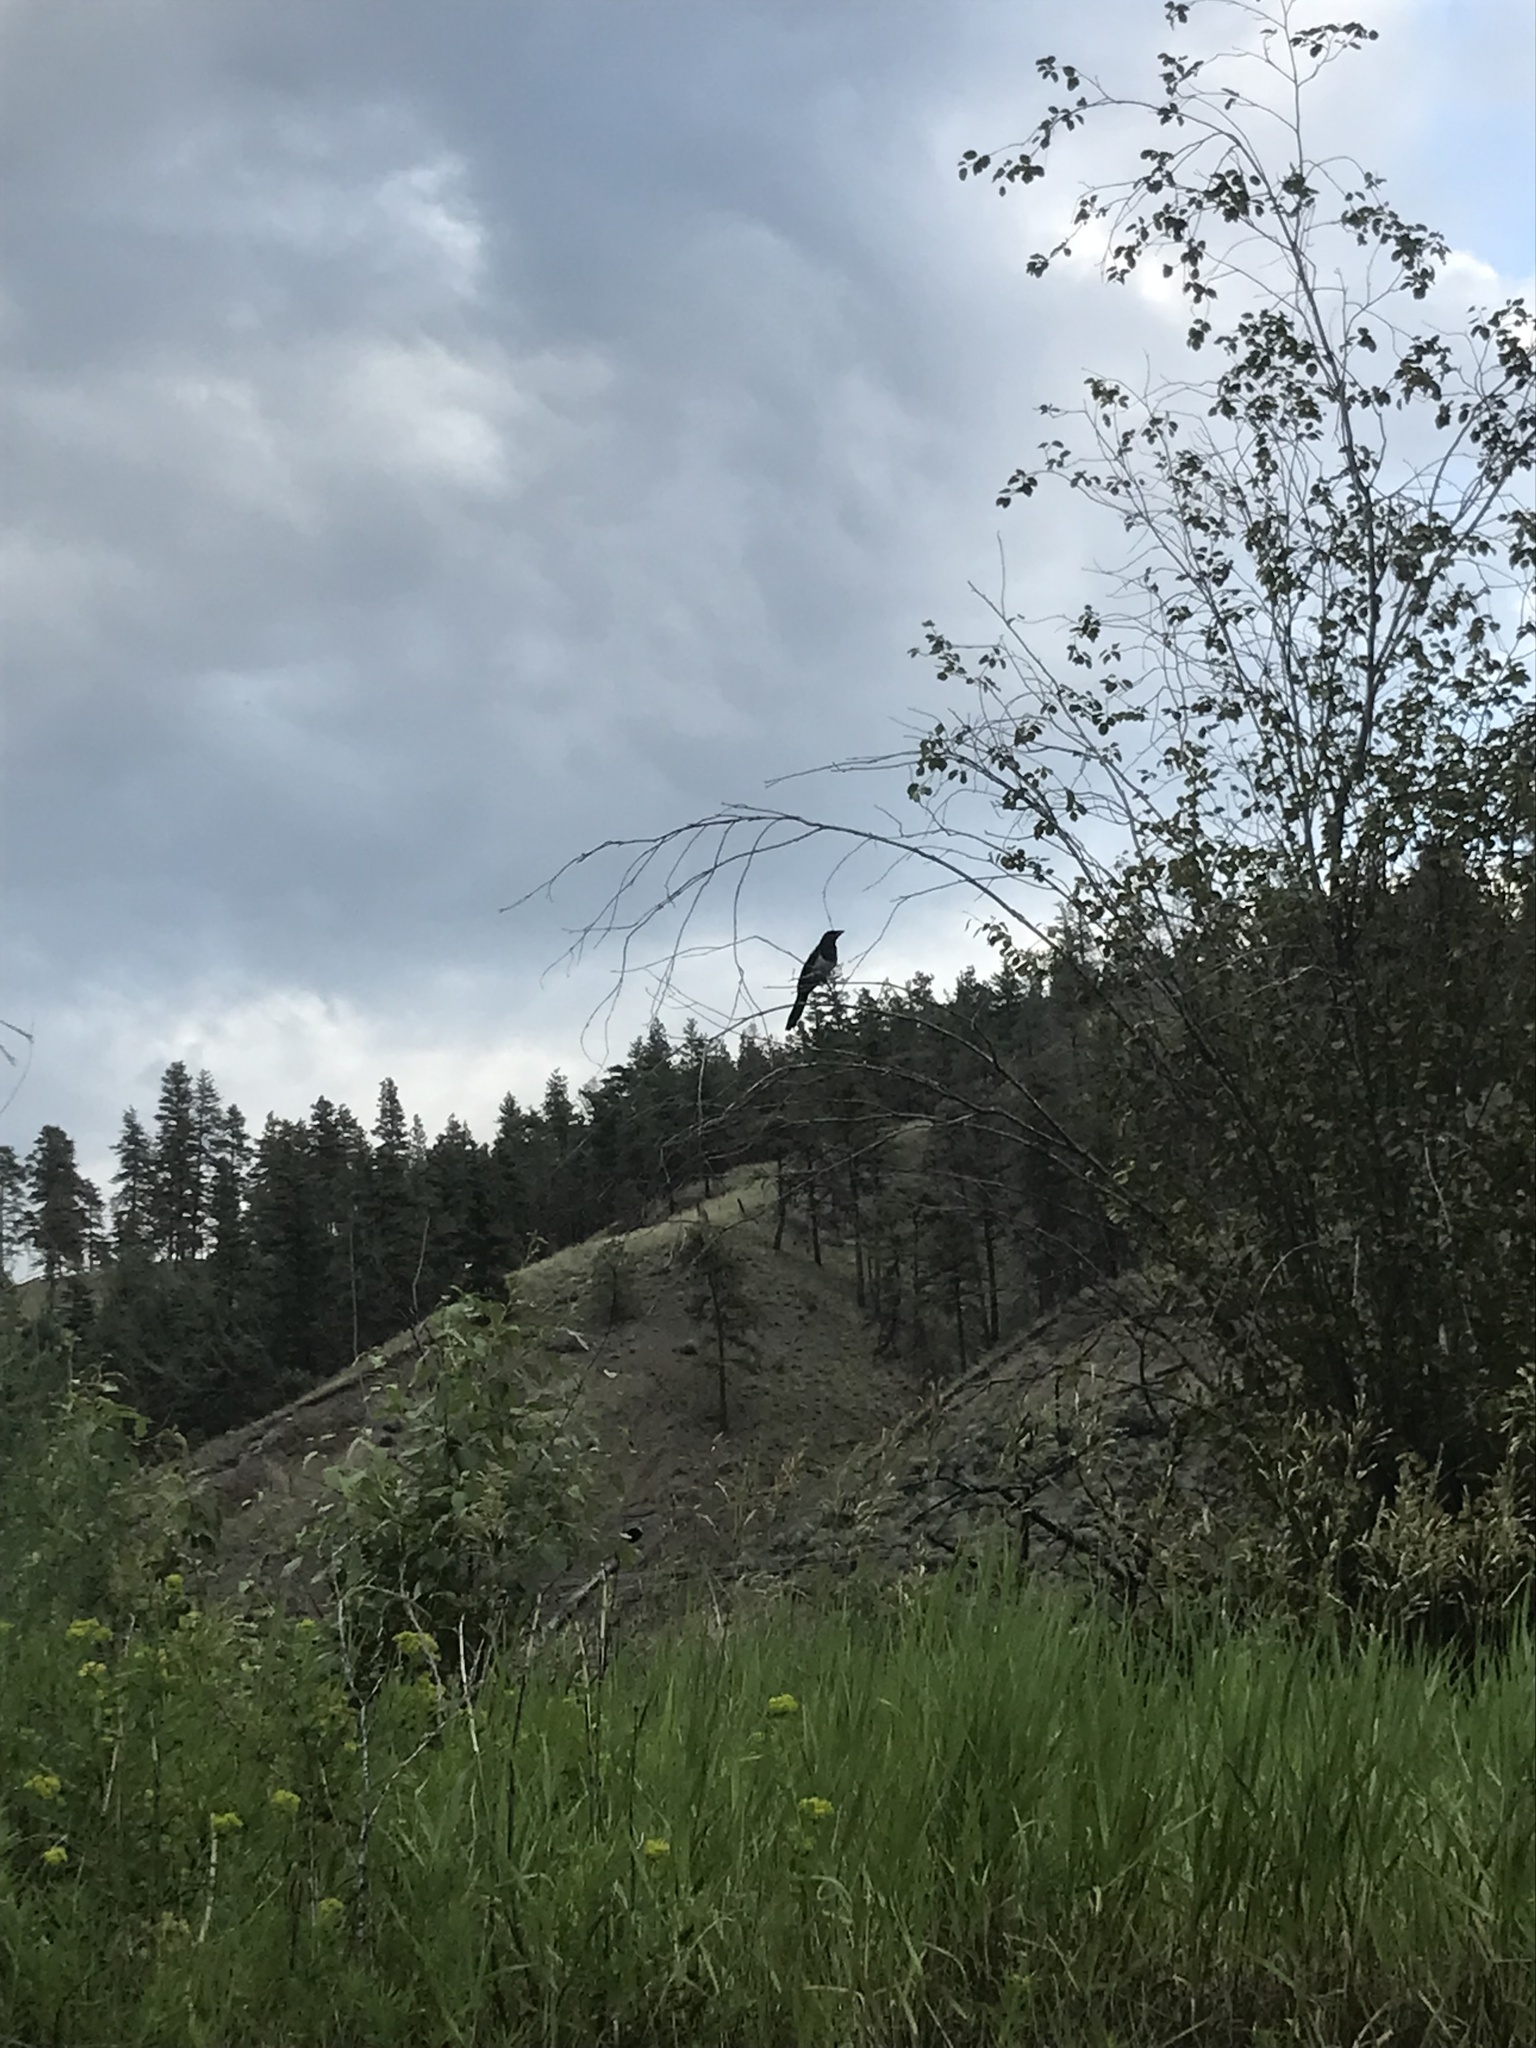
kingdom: Animalia
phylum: Chordata
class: Aves
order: Passeriformes
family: Corvidae
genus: Pica
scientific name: Pica hudsonia
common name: Black-billed magpie
